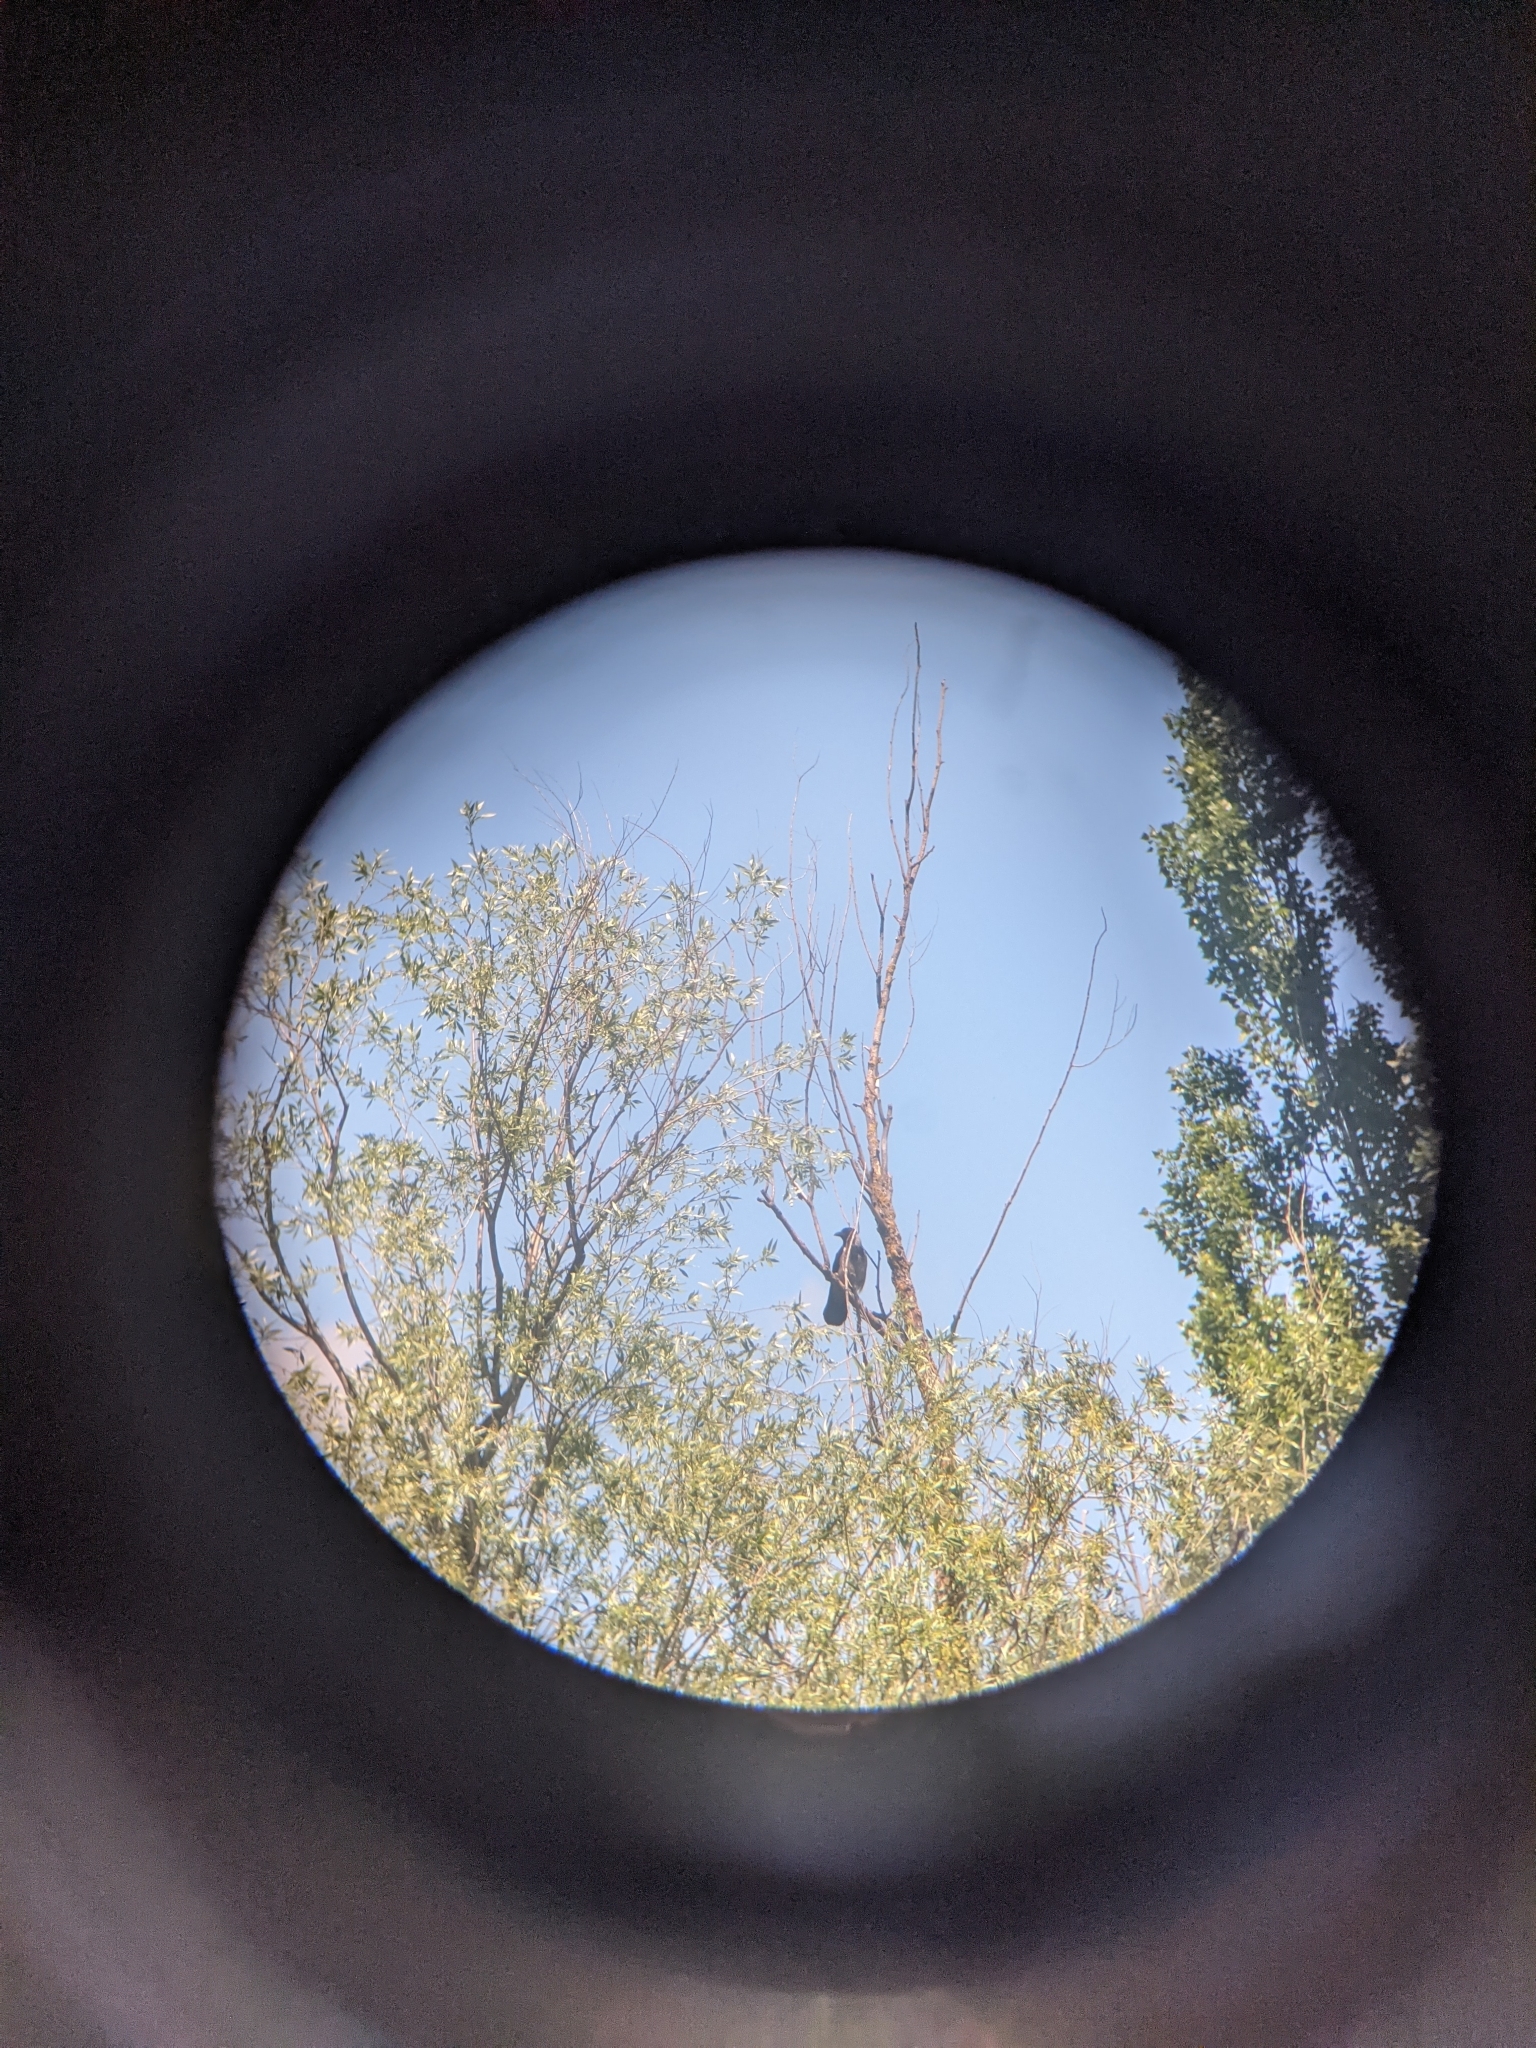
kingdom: Animalia
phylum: Chordata
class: Aves
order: Passeriformes
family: Corvidae
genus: Corvus
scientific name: Corvus cornix
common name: Hooded crow
